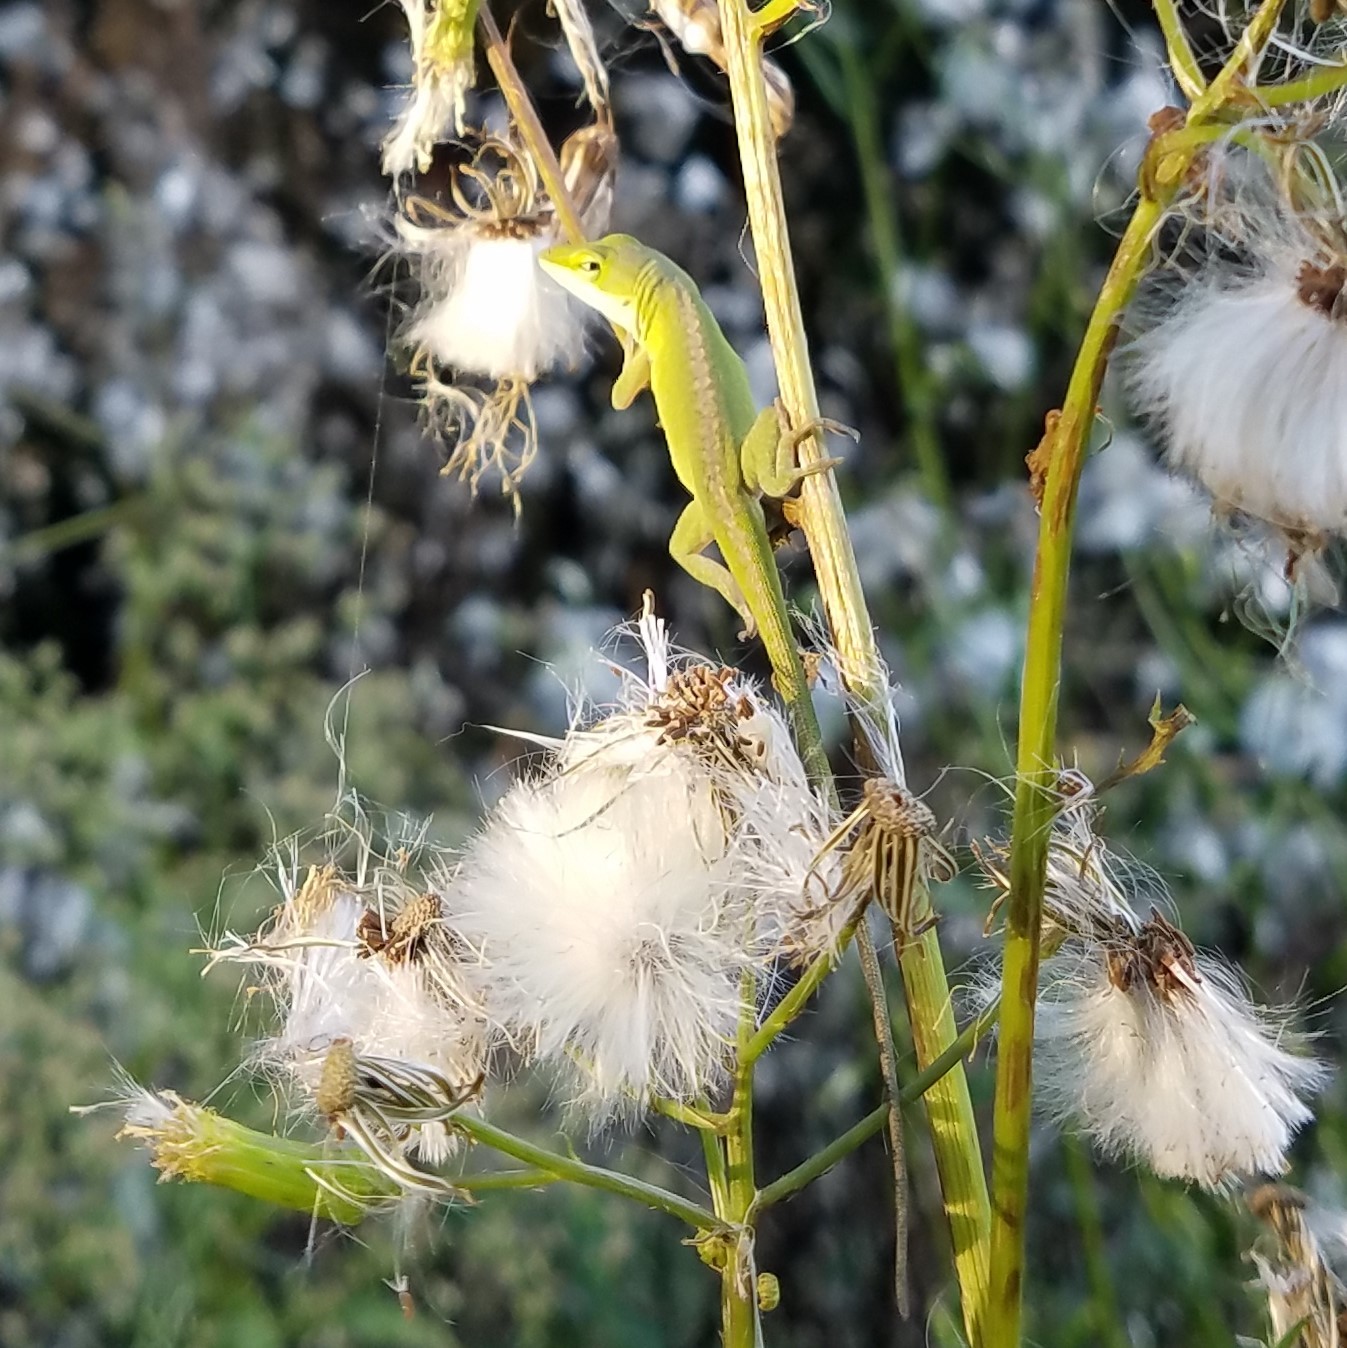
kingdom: Animalia
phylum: Chordata
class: Squamata
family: Dactyloidae
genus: Anolis
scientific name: Anolis carolinensis
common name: Green anole
